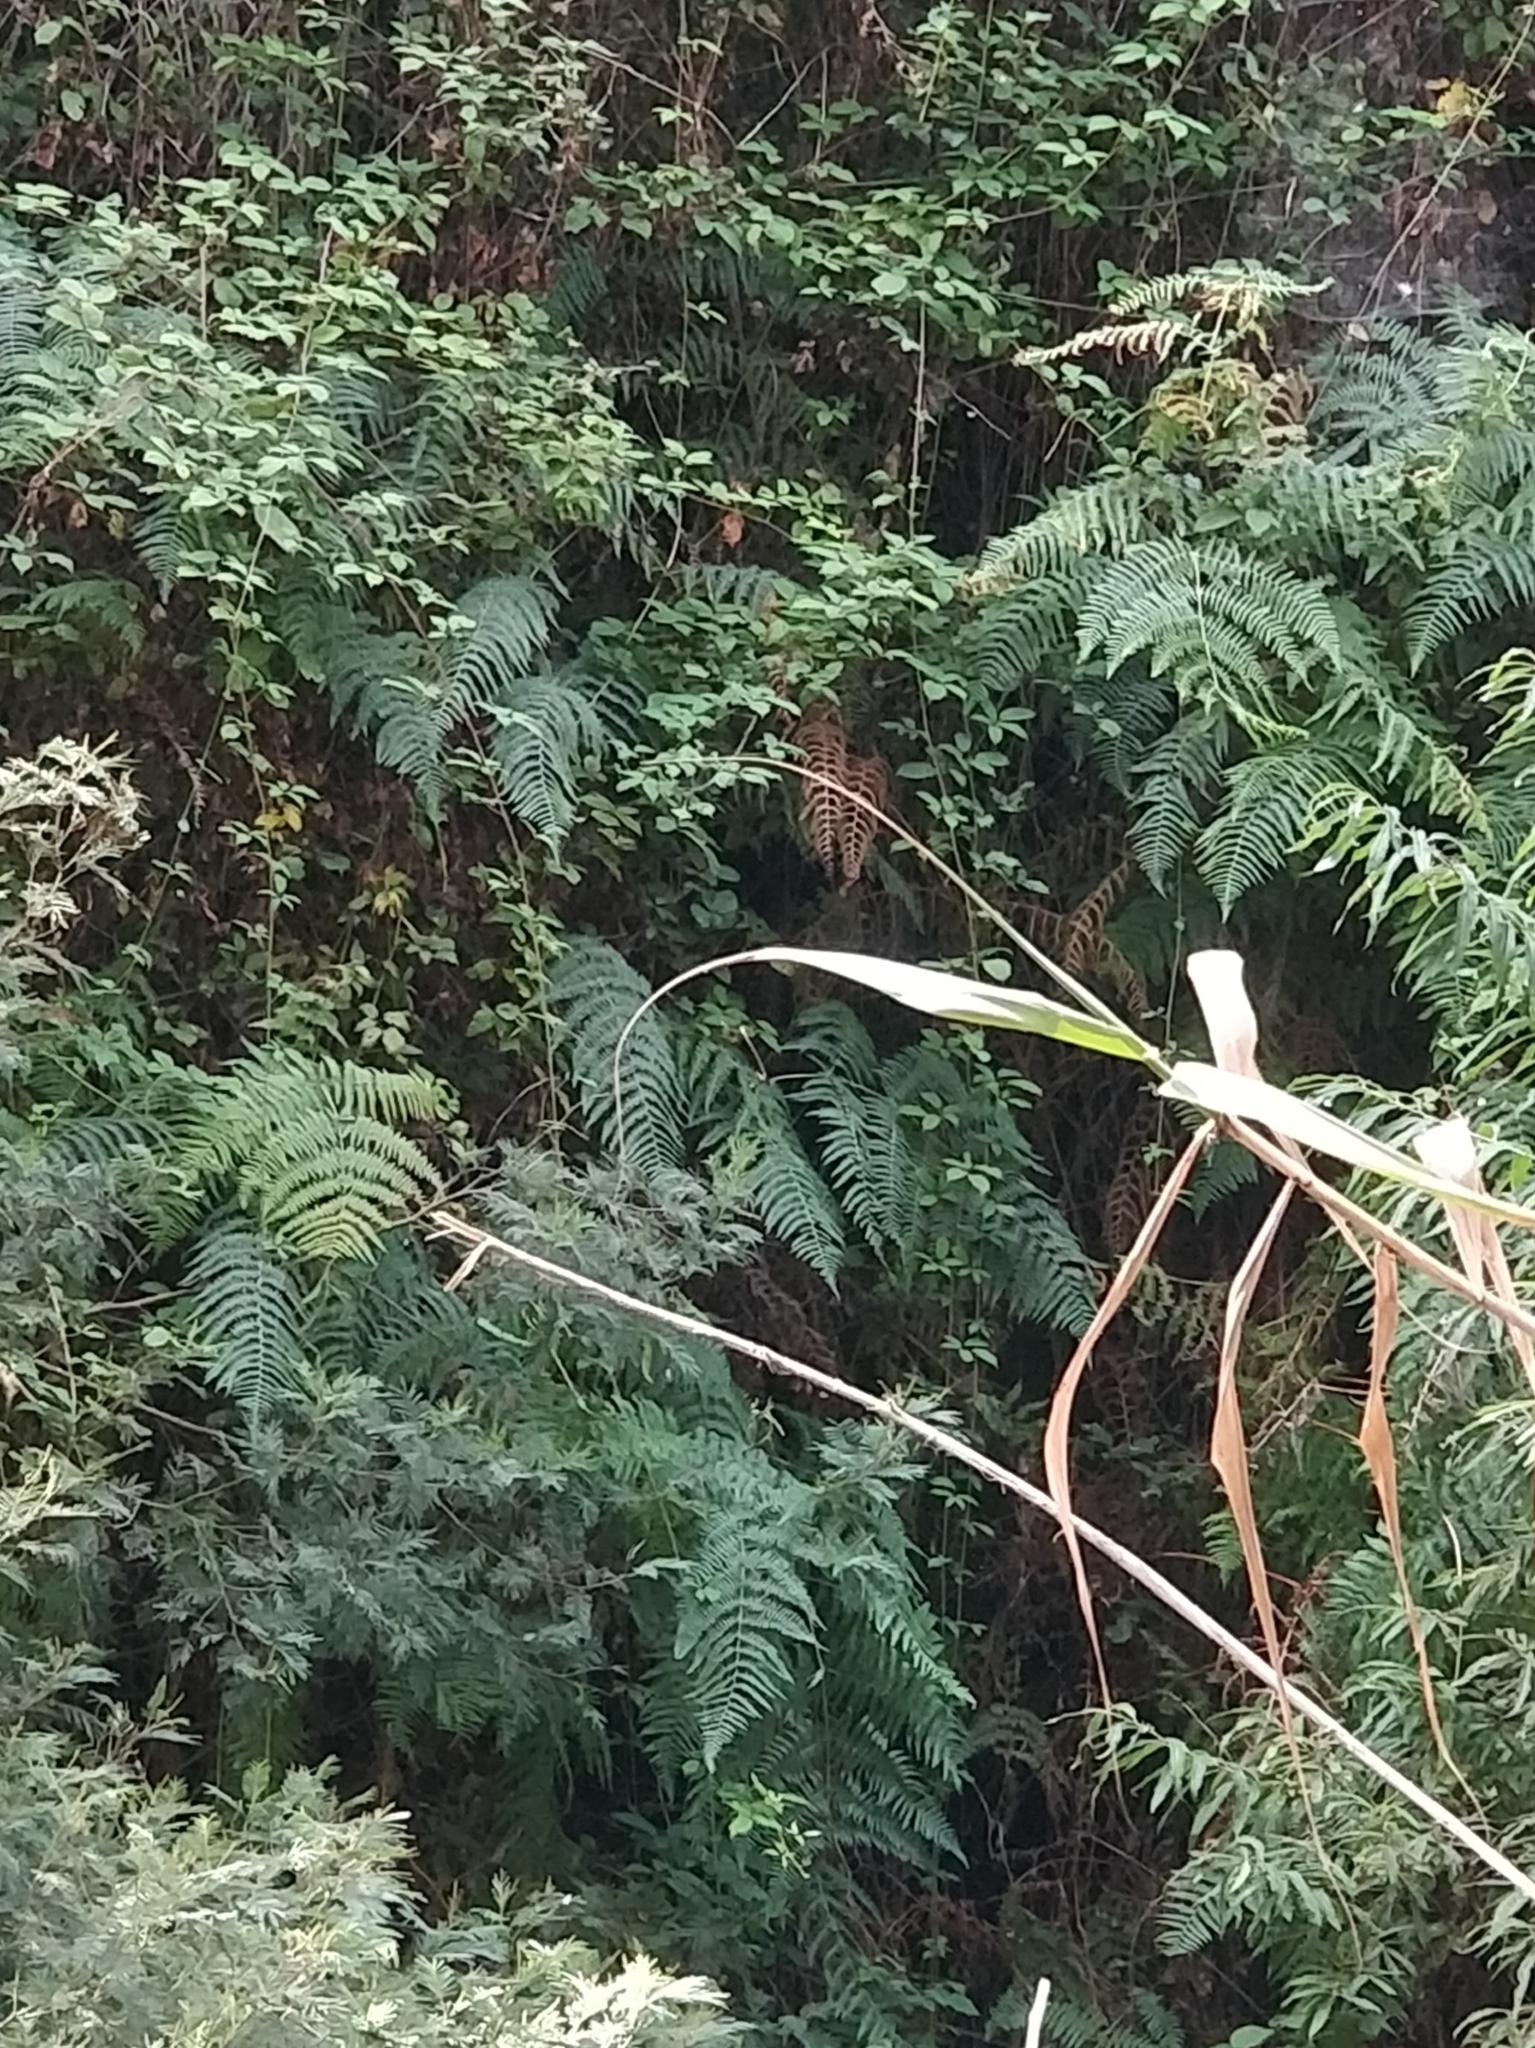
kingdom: Plantae
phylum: Tracheophyta
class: Polypodiopsida
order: Polypodiales
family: Dennstaedtiaceae
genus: Pteridium
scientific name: Pteridium aquilinum
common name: Bracken
